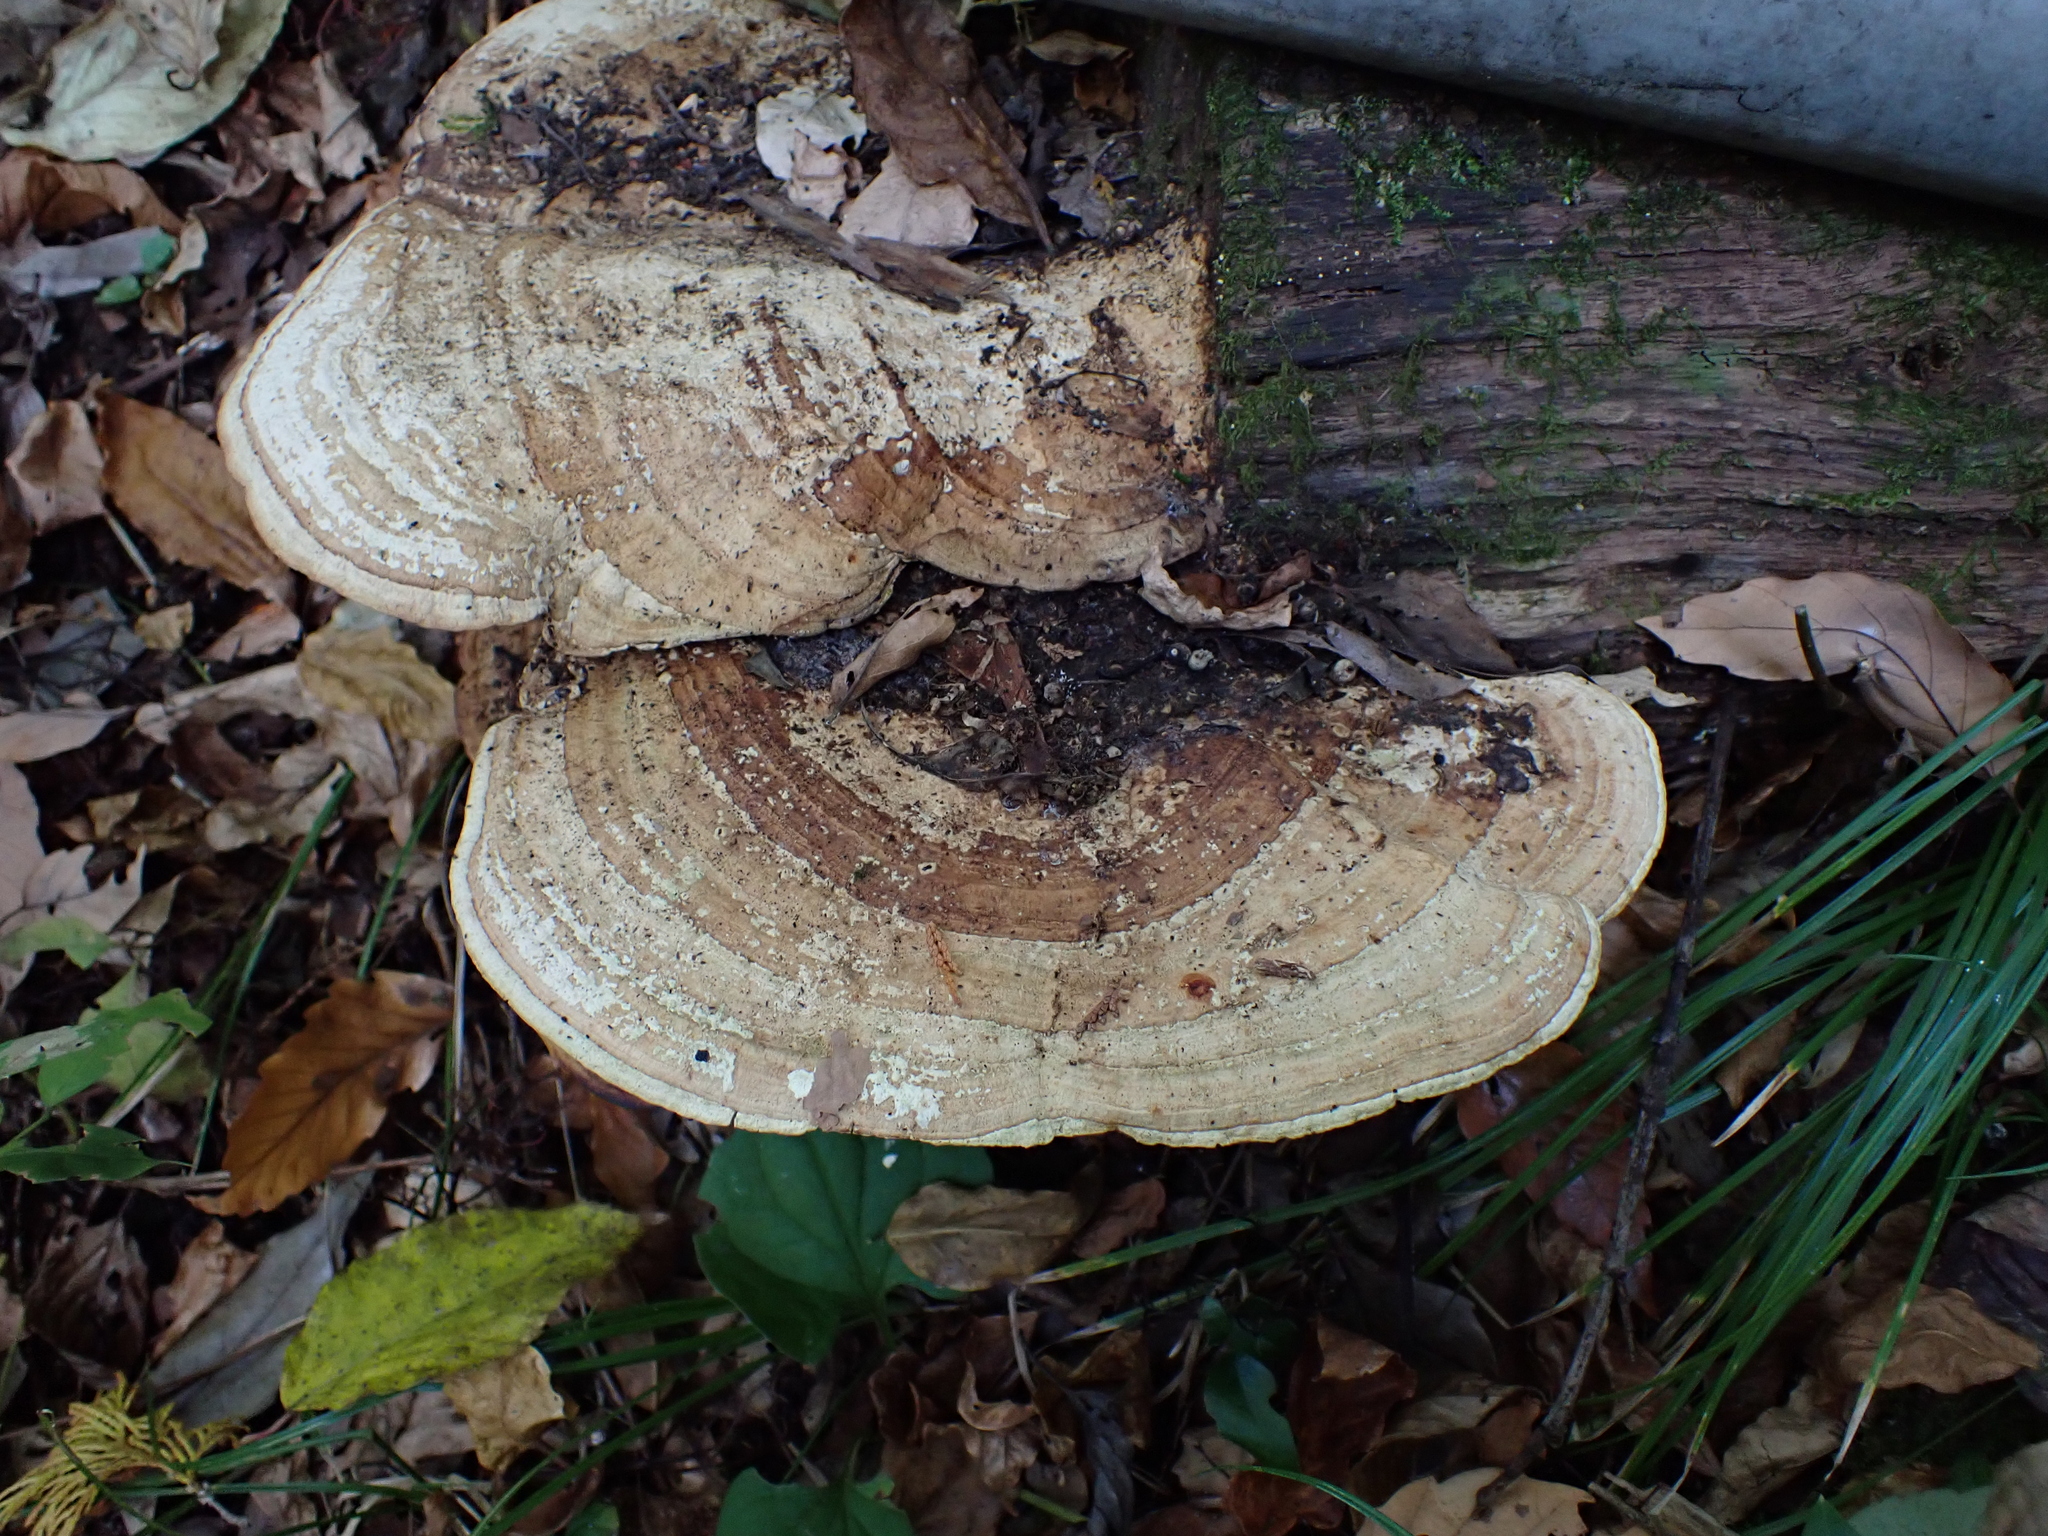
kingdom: Fungi
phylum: Basidiomycota
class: Agaricomycetes
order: Polyporales
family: Fomitopsidaceae
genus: Fomitopsis
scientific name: Fomitopsis
